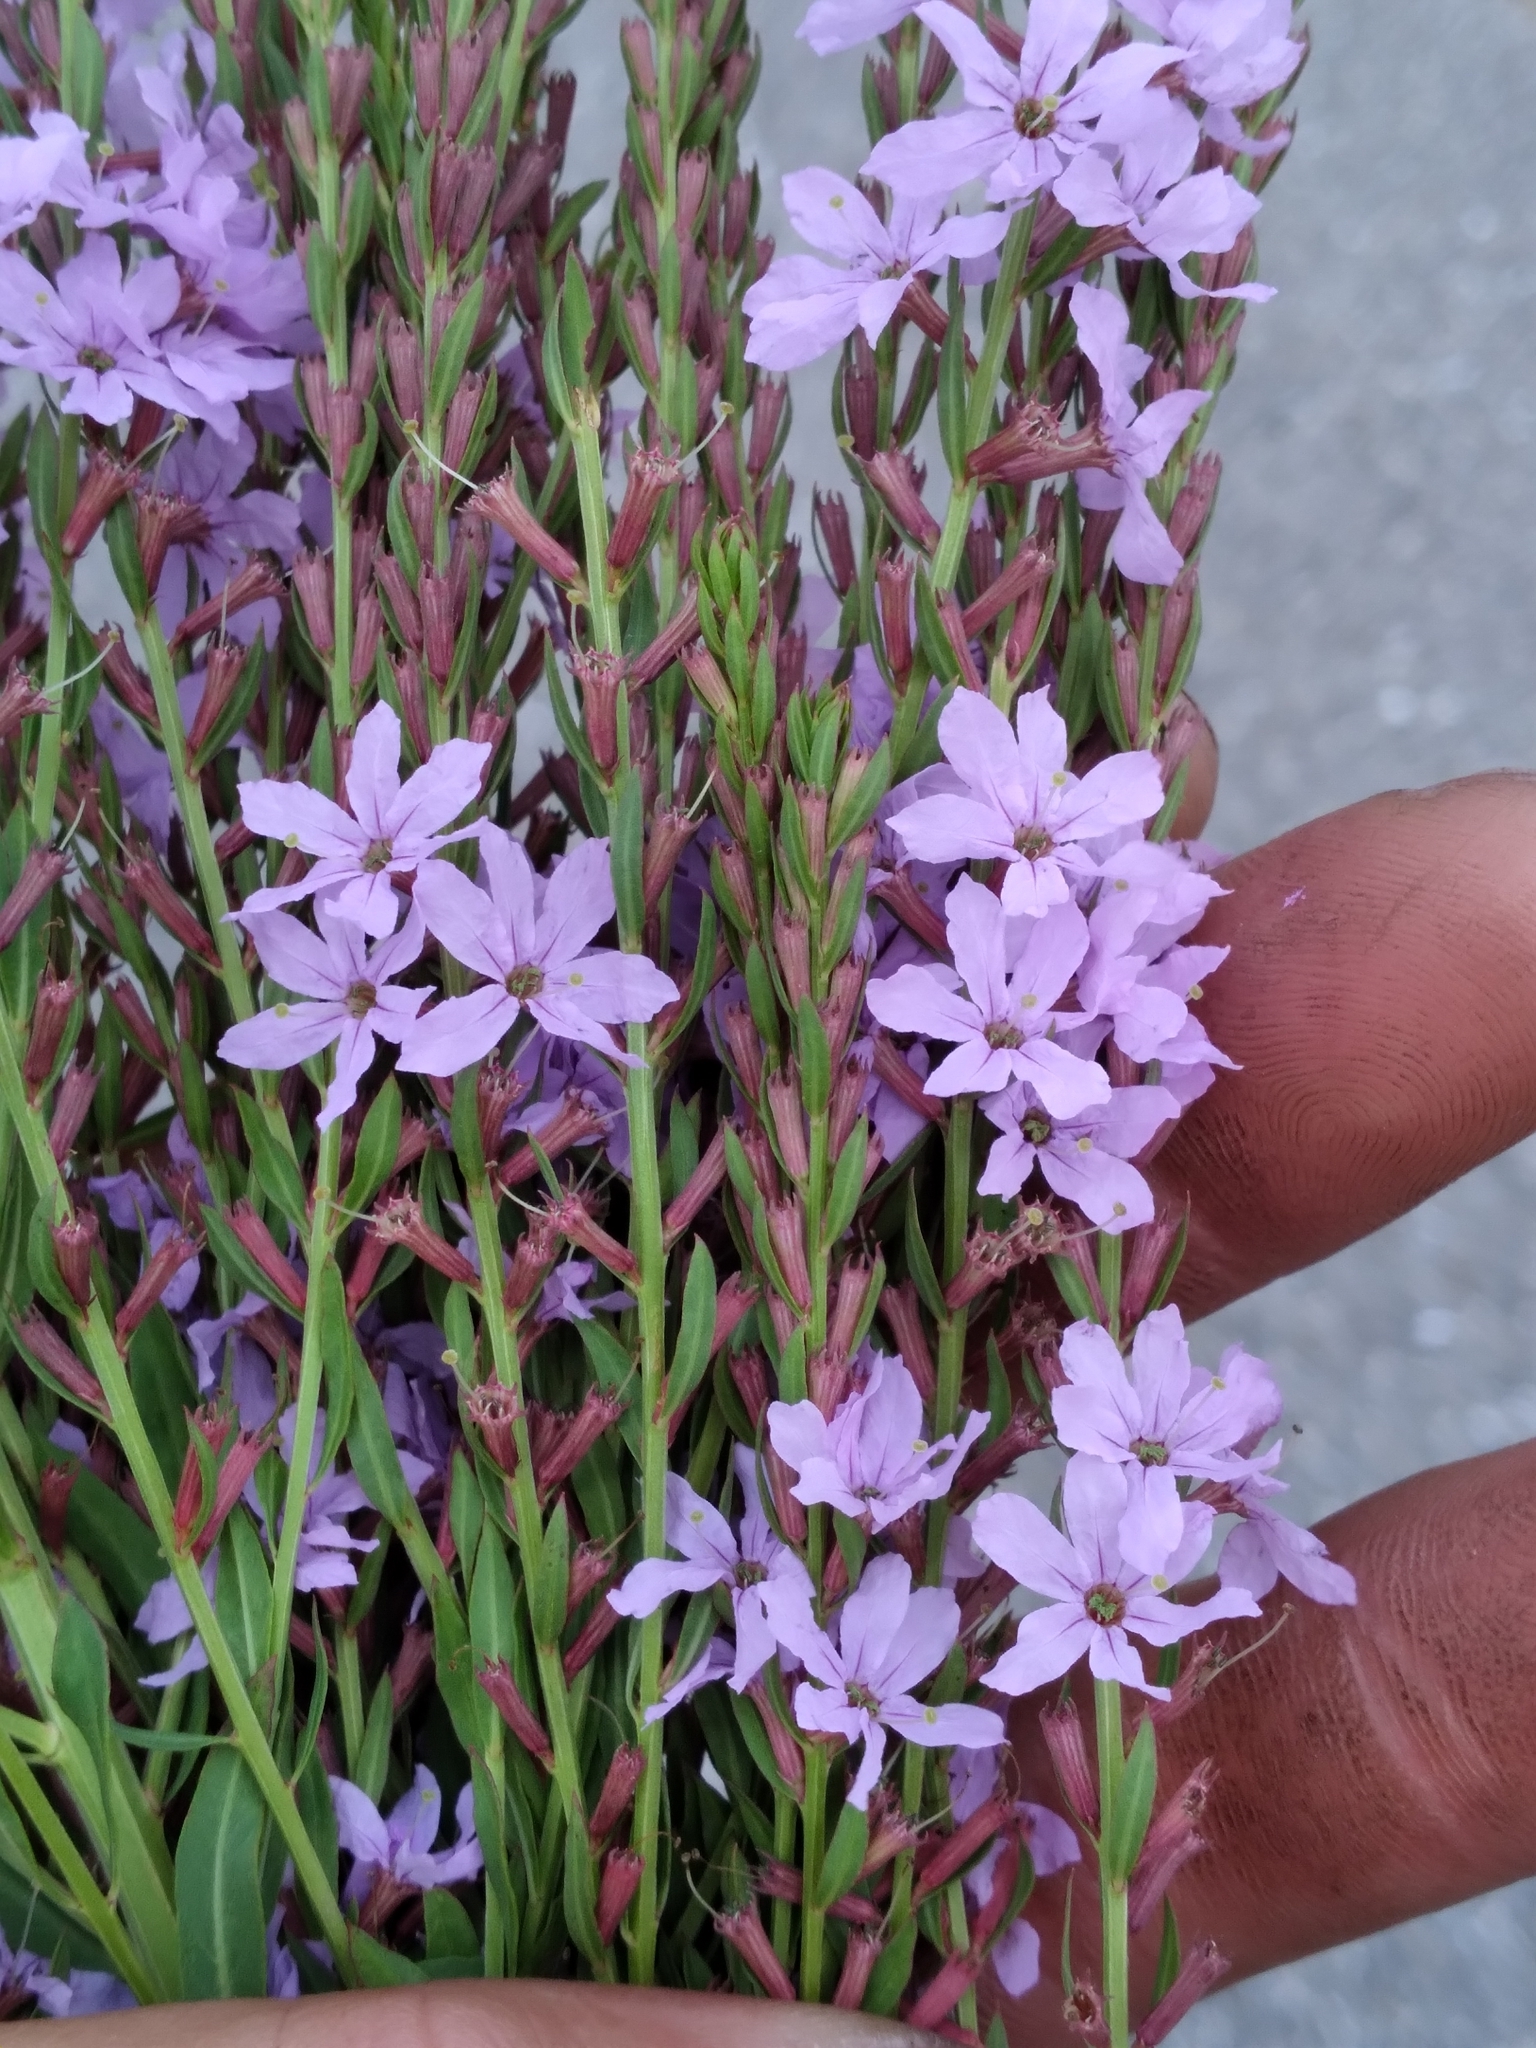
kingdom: Plantae
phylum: Tracheophyta
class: Magnoliopsida
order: Myrtales
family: Lythraceae
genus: Lythrum
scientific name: Lythrum alatum
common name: Winged loosestrife
